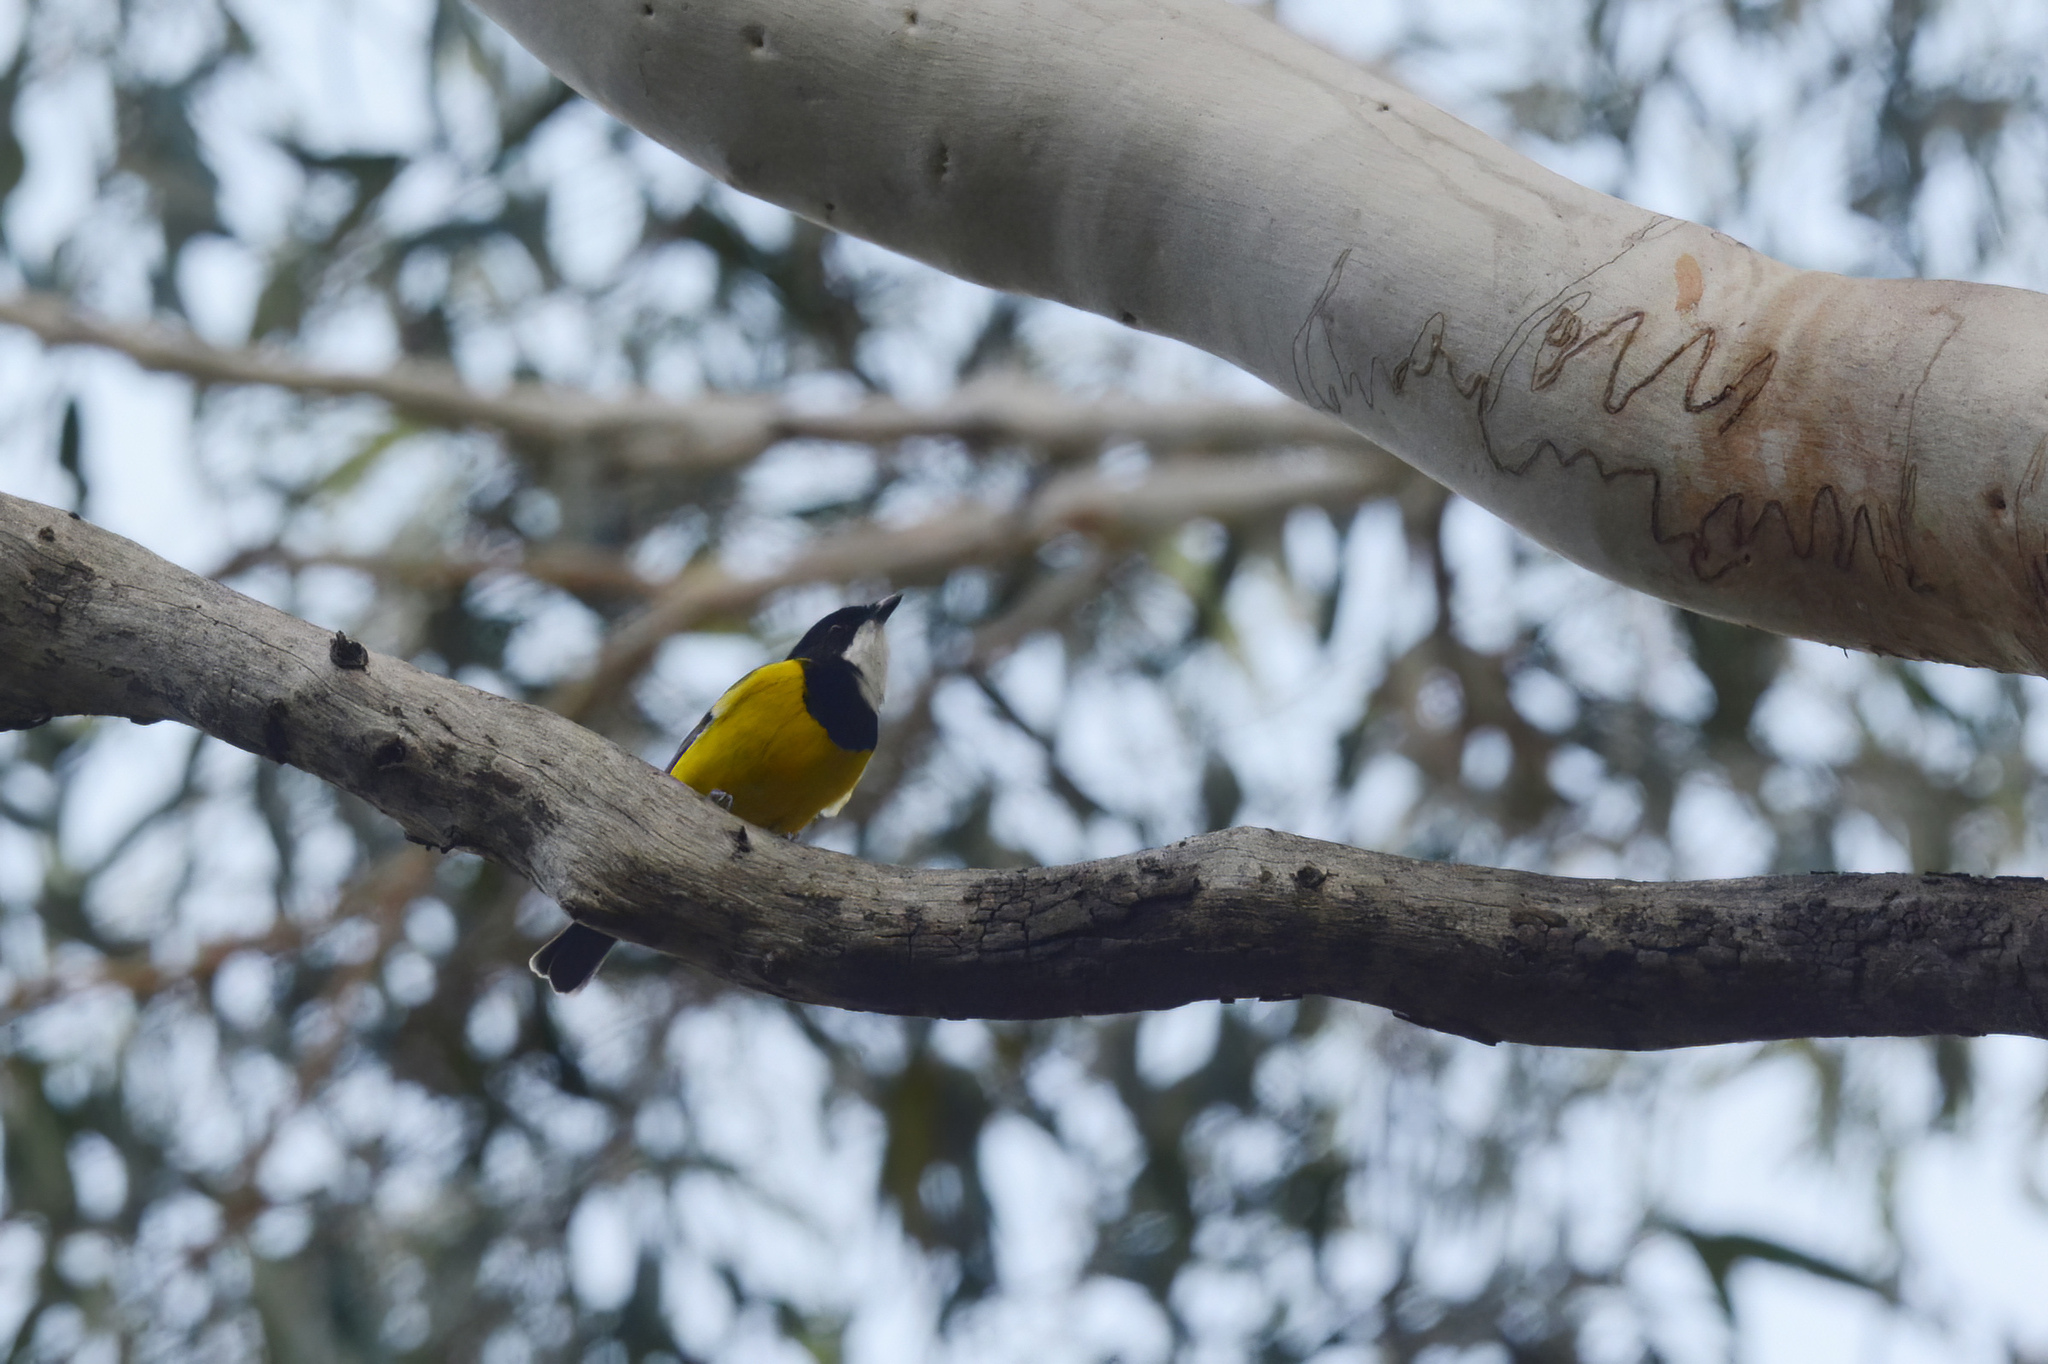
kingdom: Animalia
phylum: Chordata
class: Aves
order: Passeriformes
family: Pachycephalidae
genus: Pachycephala
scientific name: Pachycephala pectoralis
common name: Australian golden whistler
